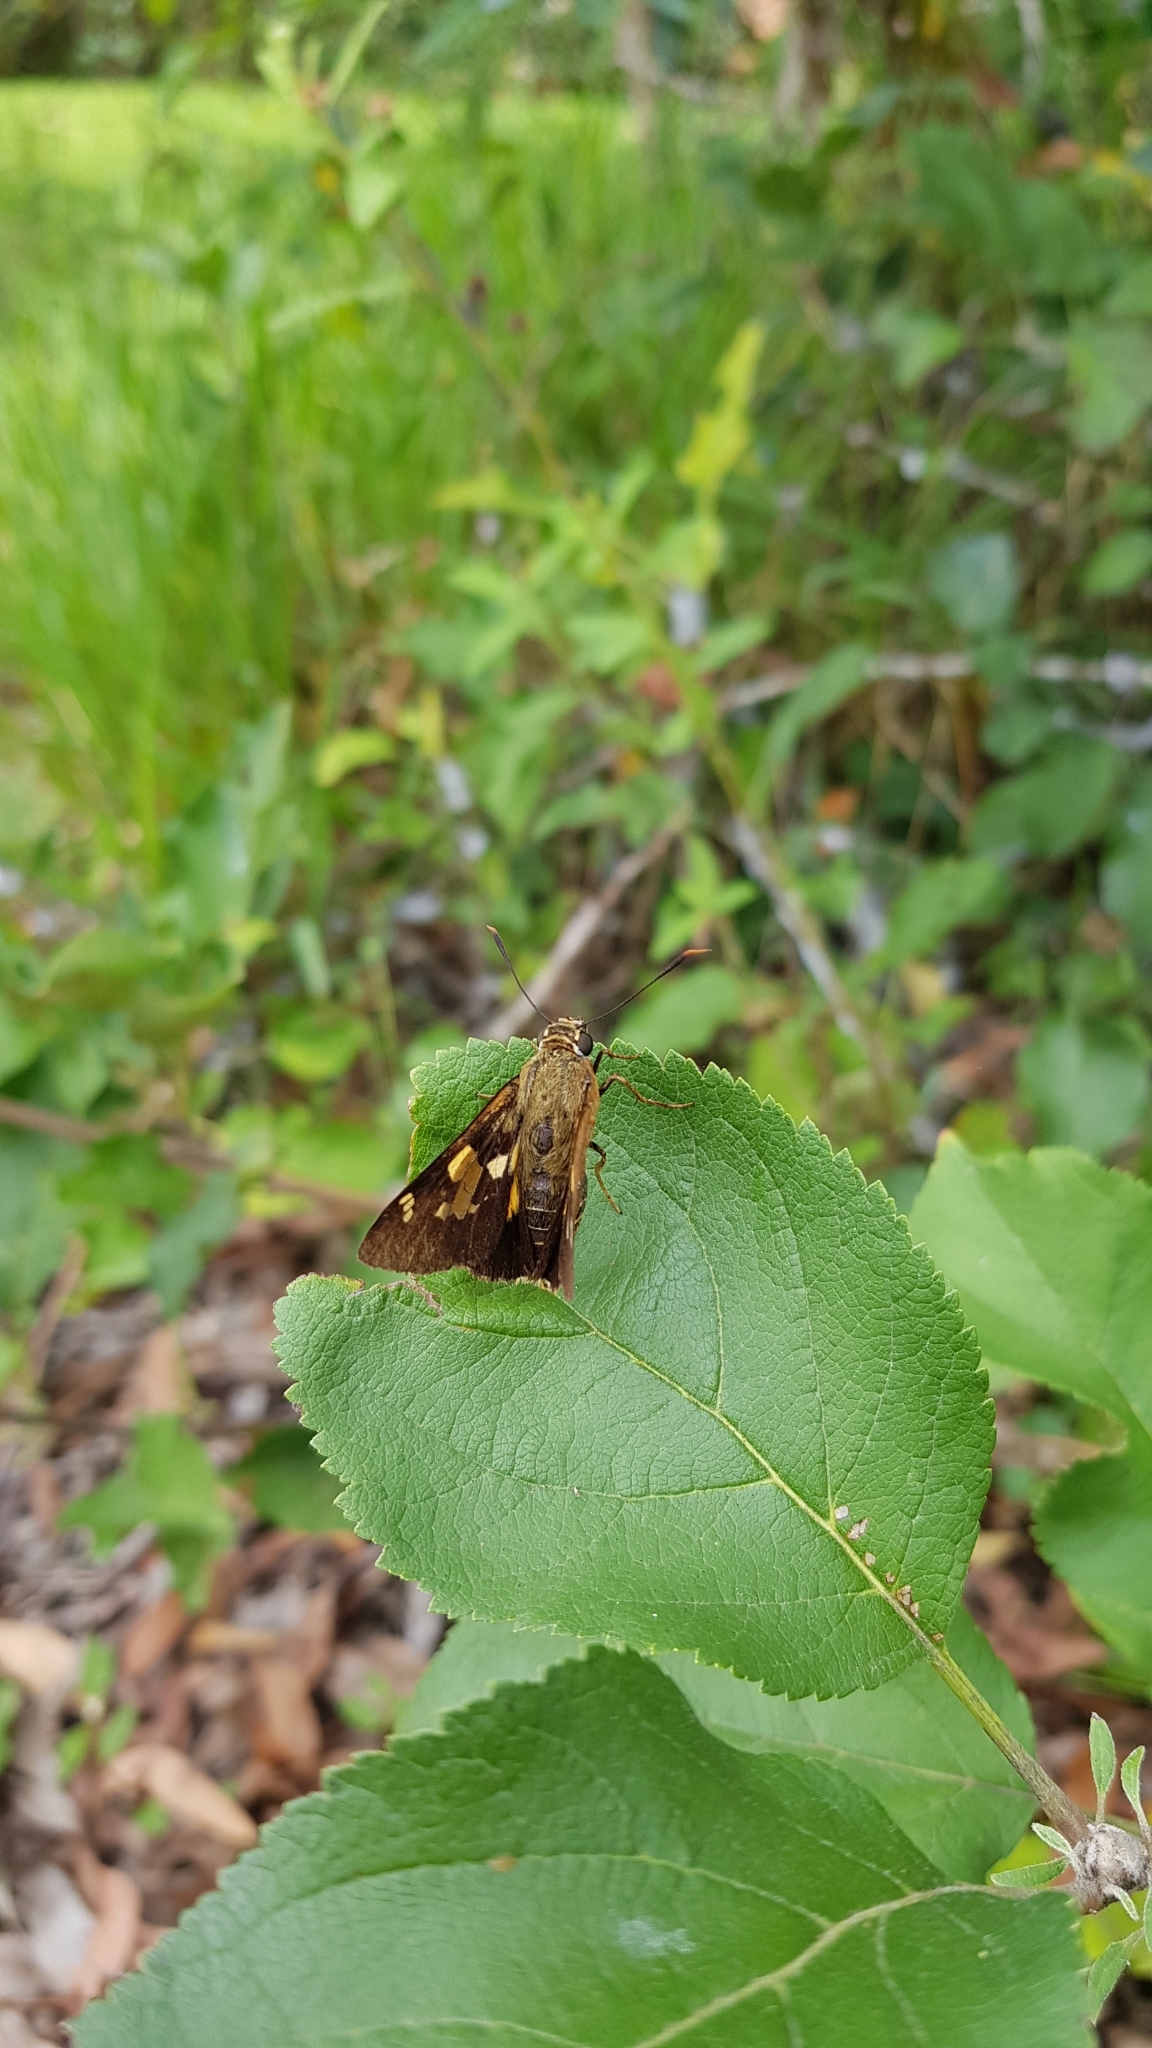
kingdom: Animalia
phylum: Arthropoda
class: Insecta
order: Lepidoptera
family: Hesperiidae
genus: Trapezites
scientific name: Trapezites symmomus
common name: Splendid ochre
